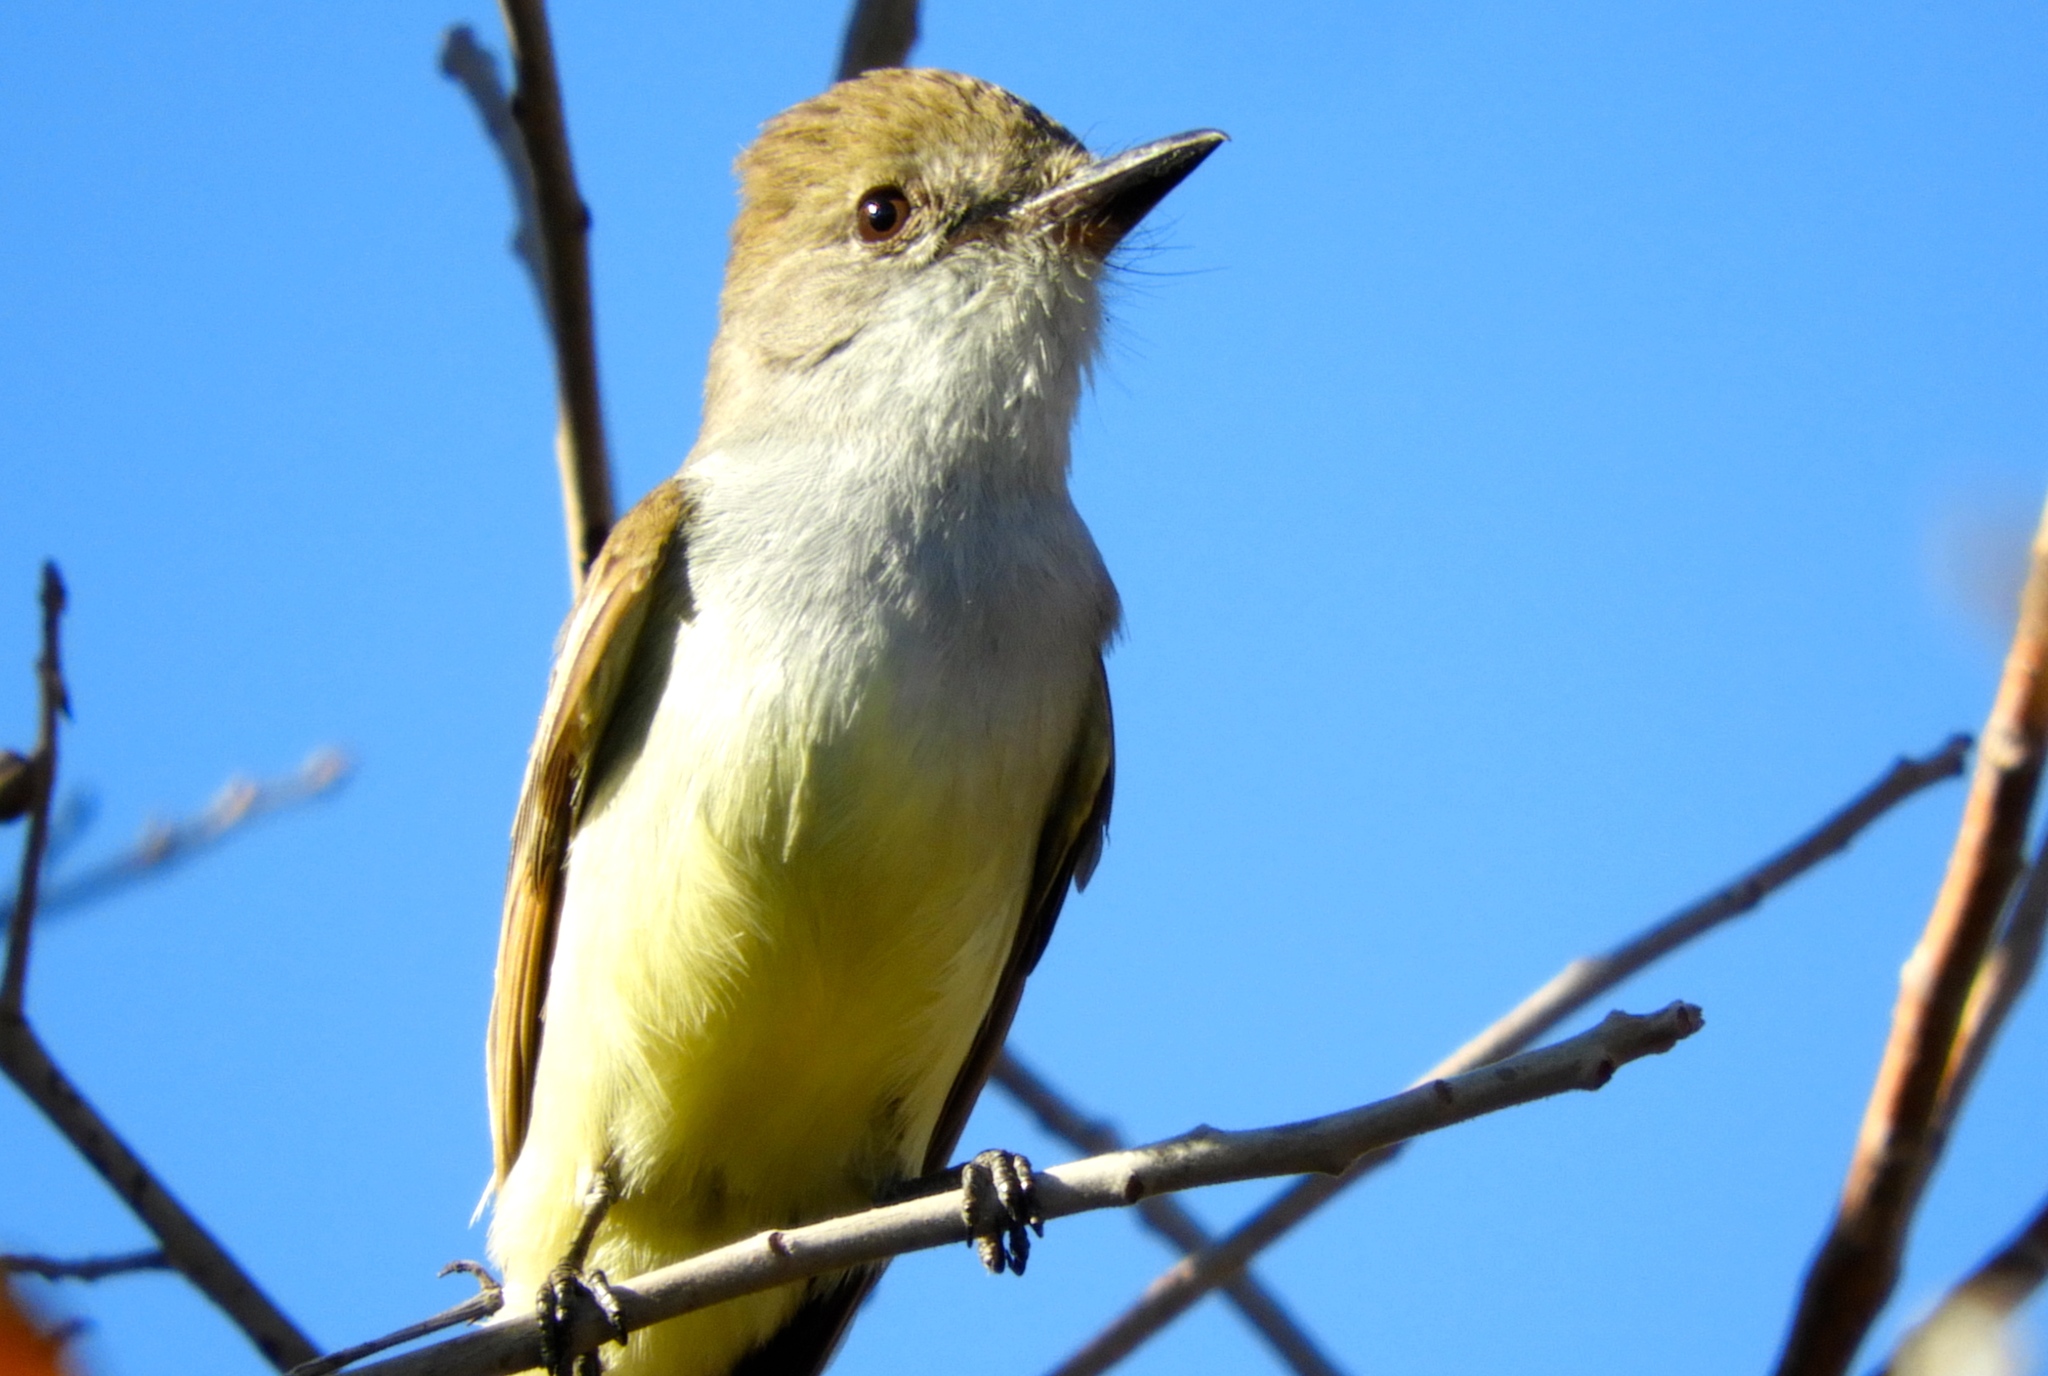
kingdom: Animalia
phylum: Chordata
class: Aves
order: Passeriformes
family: Tyrannidae
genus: Myiarchus
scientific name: Myiarchus
